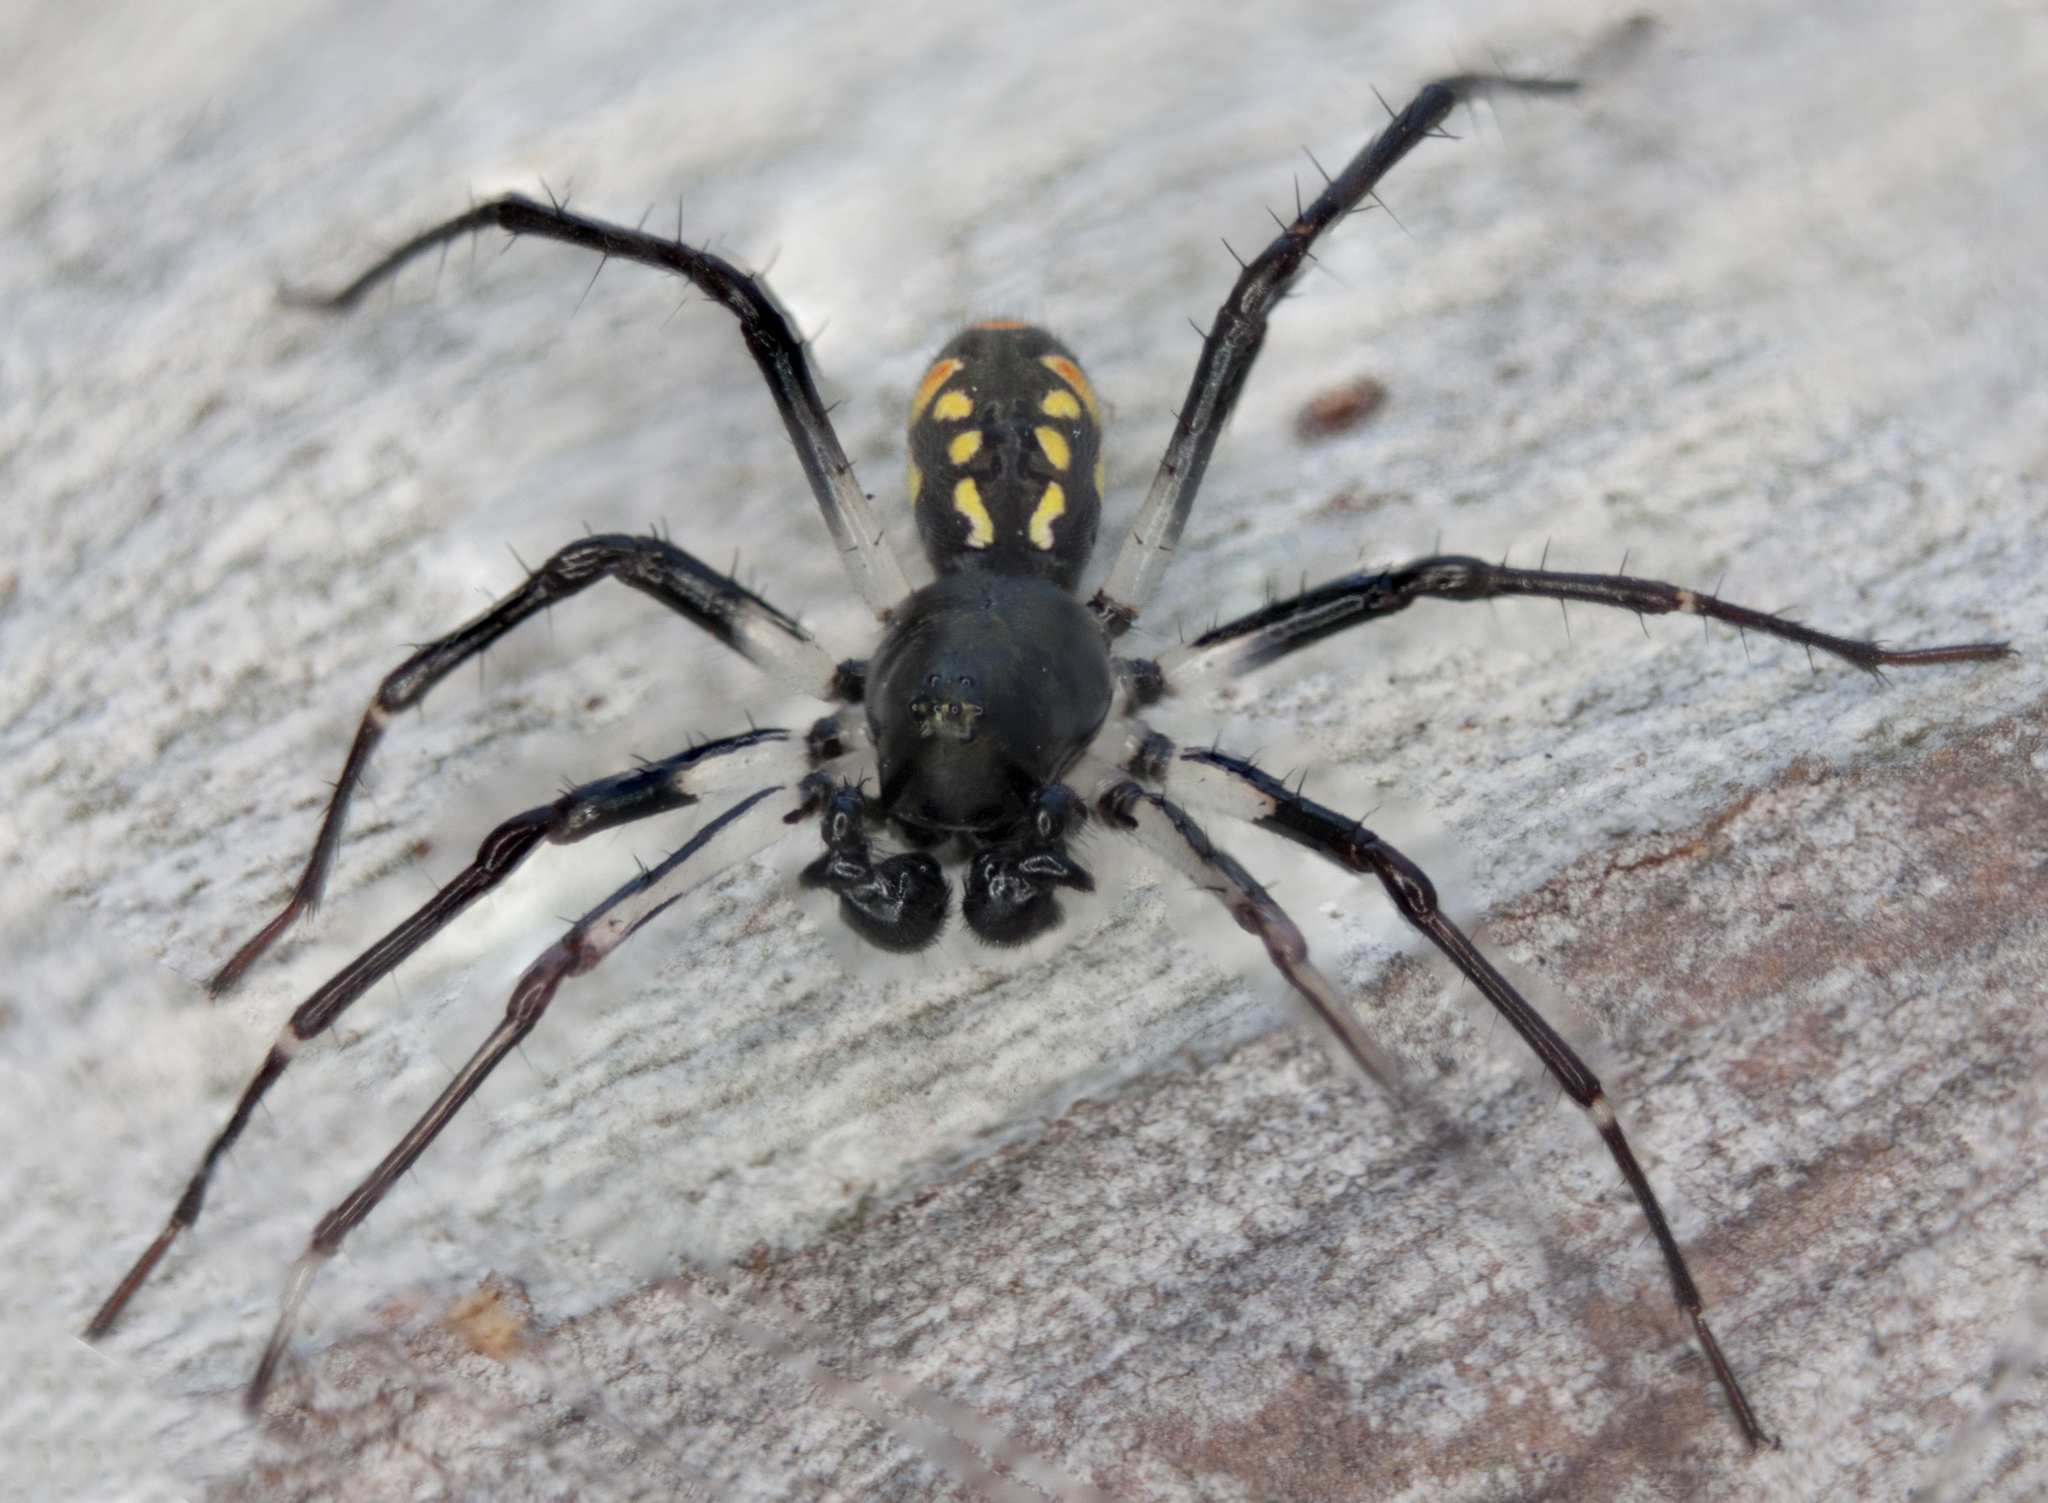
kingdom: Animalia
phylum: Arthropoda
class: Arachnida
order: Araneae
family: Zodariidae
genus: Subasteron
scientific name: Subasteron daviesae
